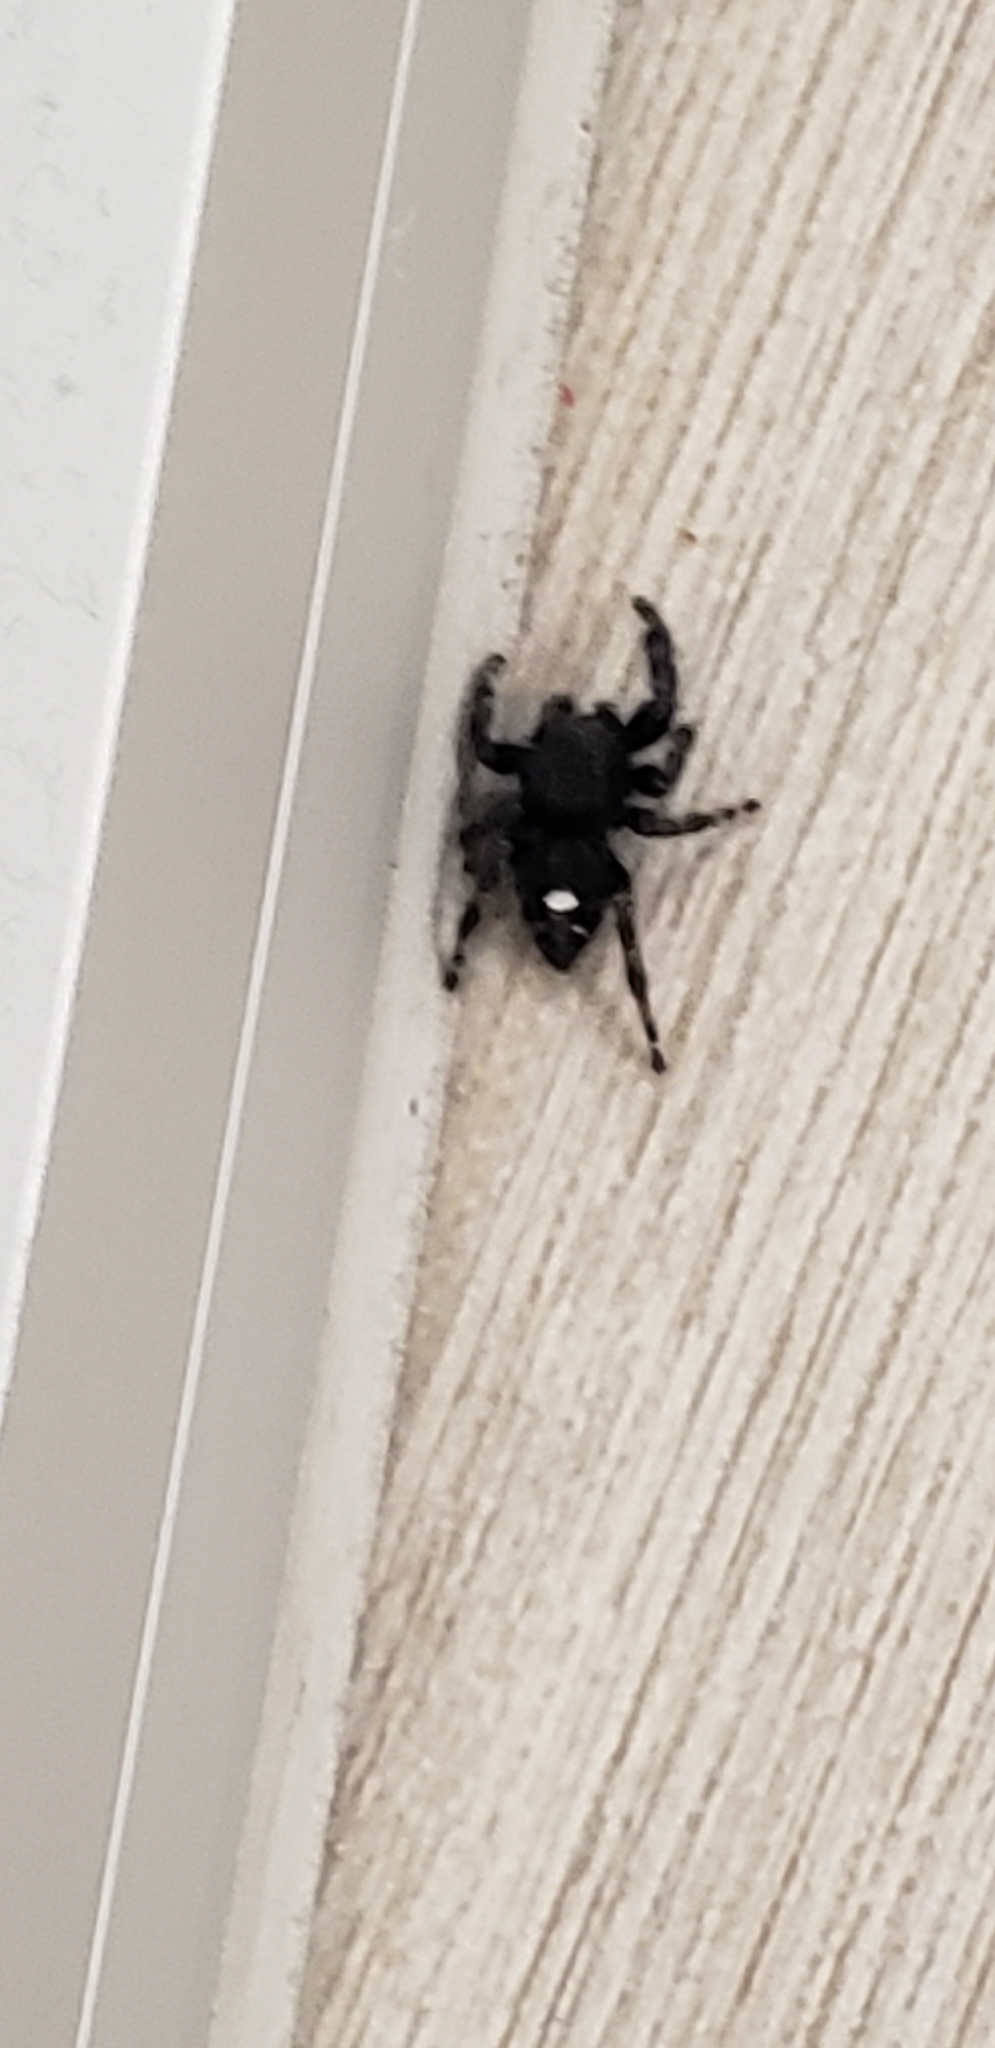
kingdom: Animalia
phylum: Arthropoda
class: Arachnida
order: Araneae
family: Salticidae
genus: Phidippus
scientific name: Phidippus audax
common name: Bold jumper
